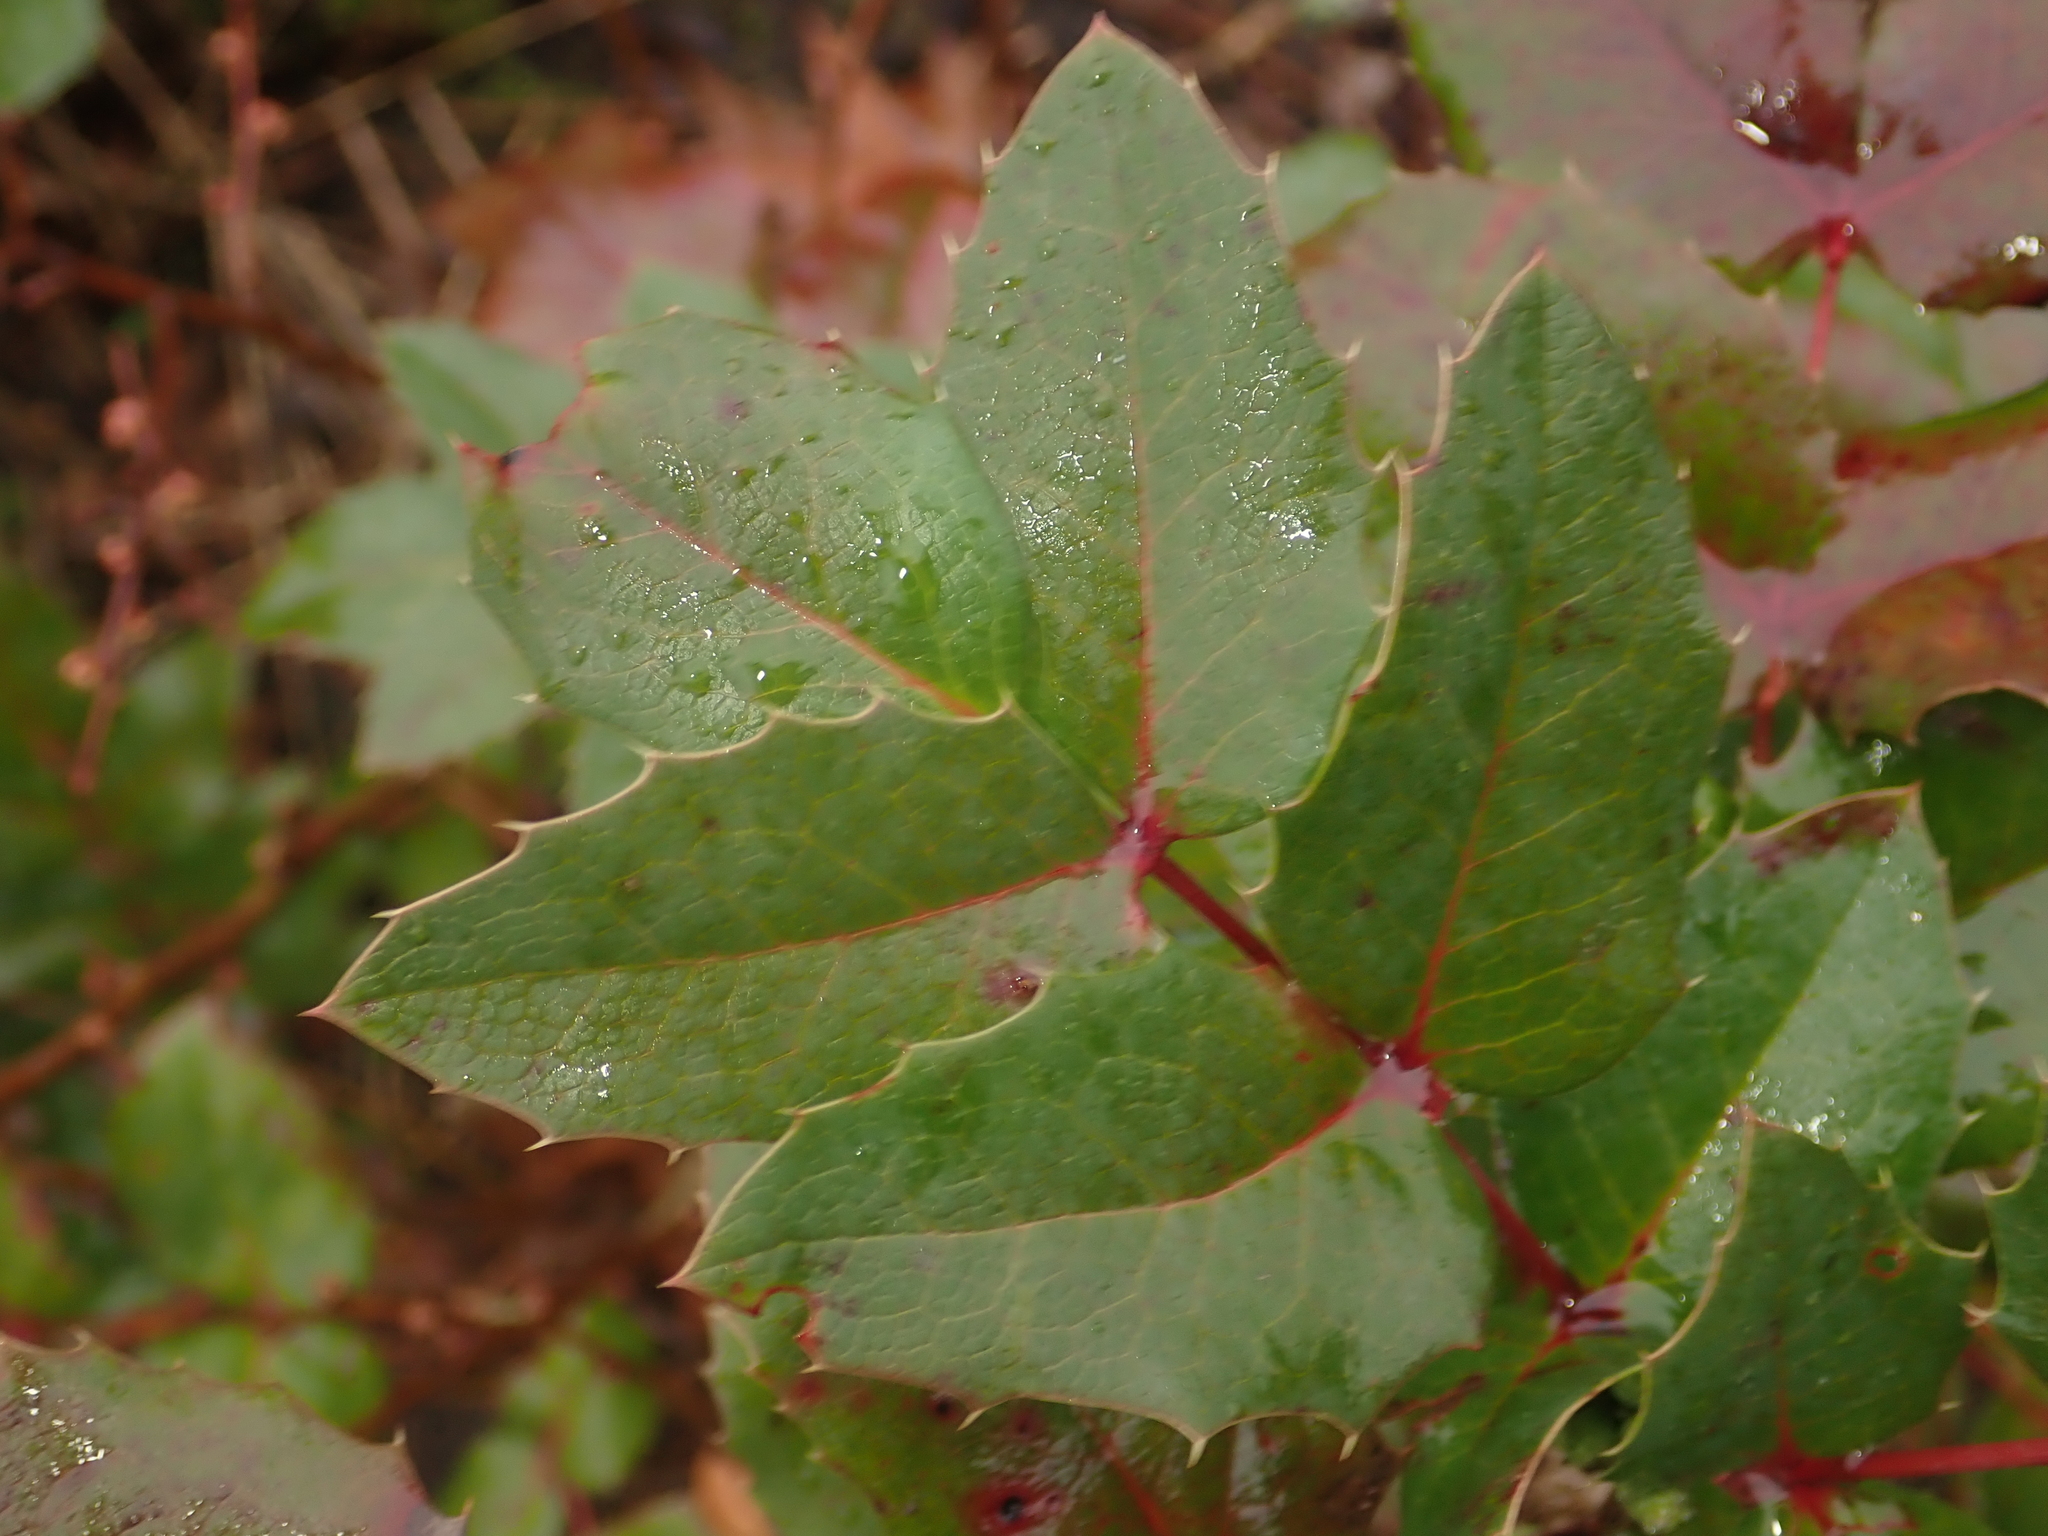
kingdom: Plantae
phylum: Tracheophyta
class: Magnoliopsida
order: Ranunculales
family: Berberidaceae
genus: Mahonia
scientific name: Mahonia aquifolium
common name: Oregon-grape
